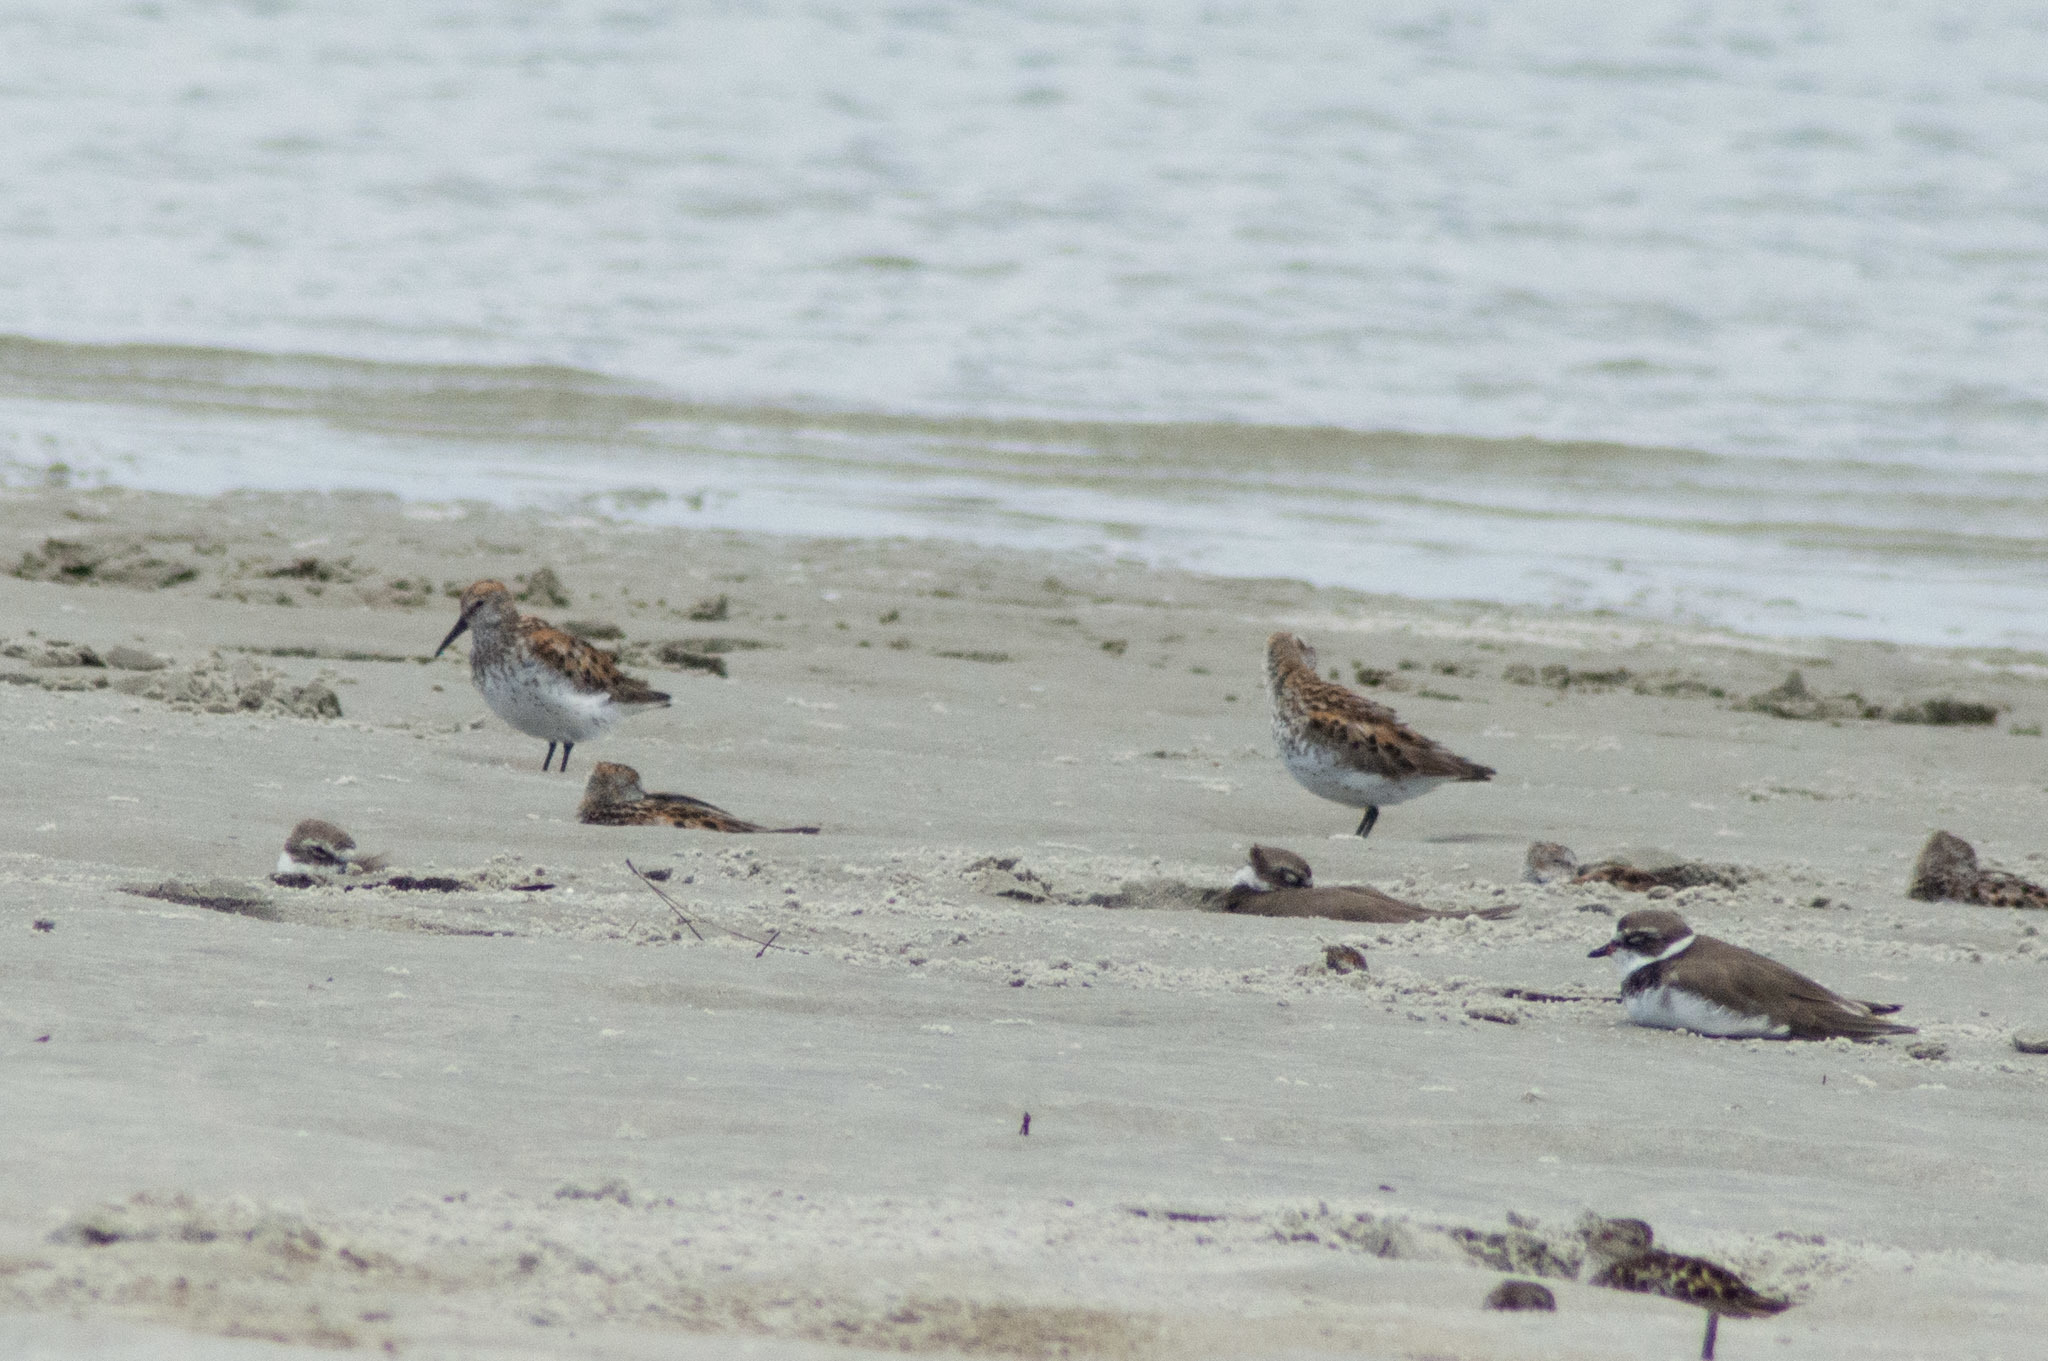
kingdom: Animalia
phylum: Chordata
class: Aves
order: Charadriiformes
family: Scolopacidae
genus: Calidris
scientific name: Calidris mauri
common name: Western sandpiper
